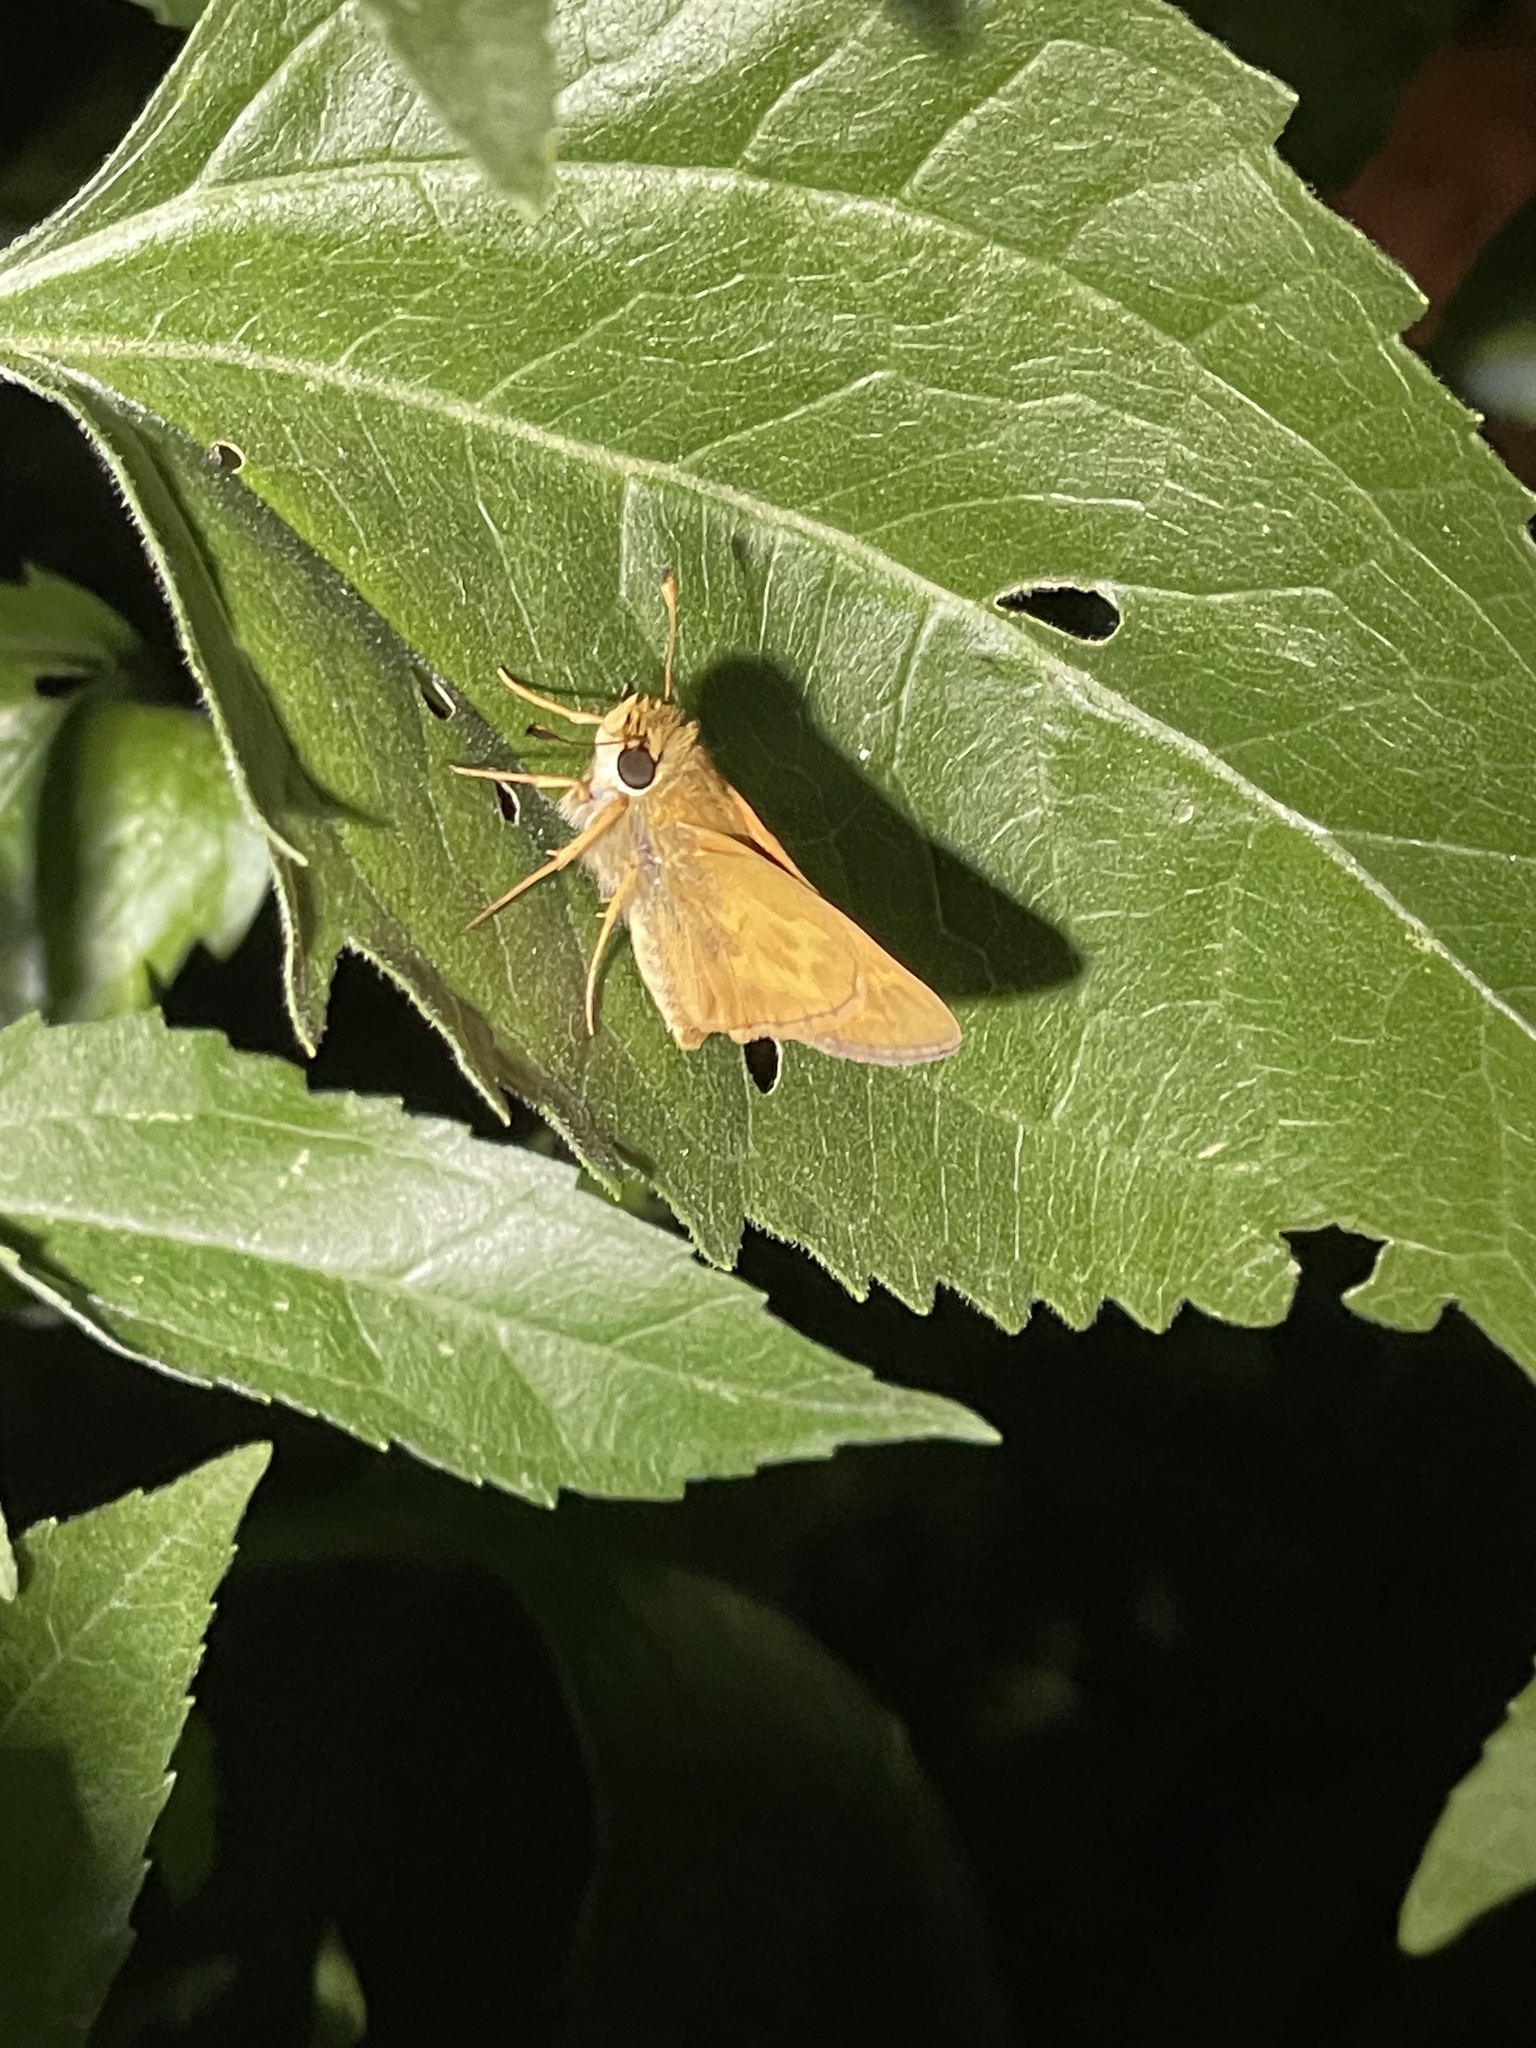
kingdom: Animalia
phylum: Arthropoda
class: Insecta
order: Lepidoptera
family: Hesperiidae
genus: Atalopedes
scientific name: Atalopedes
